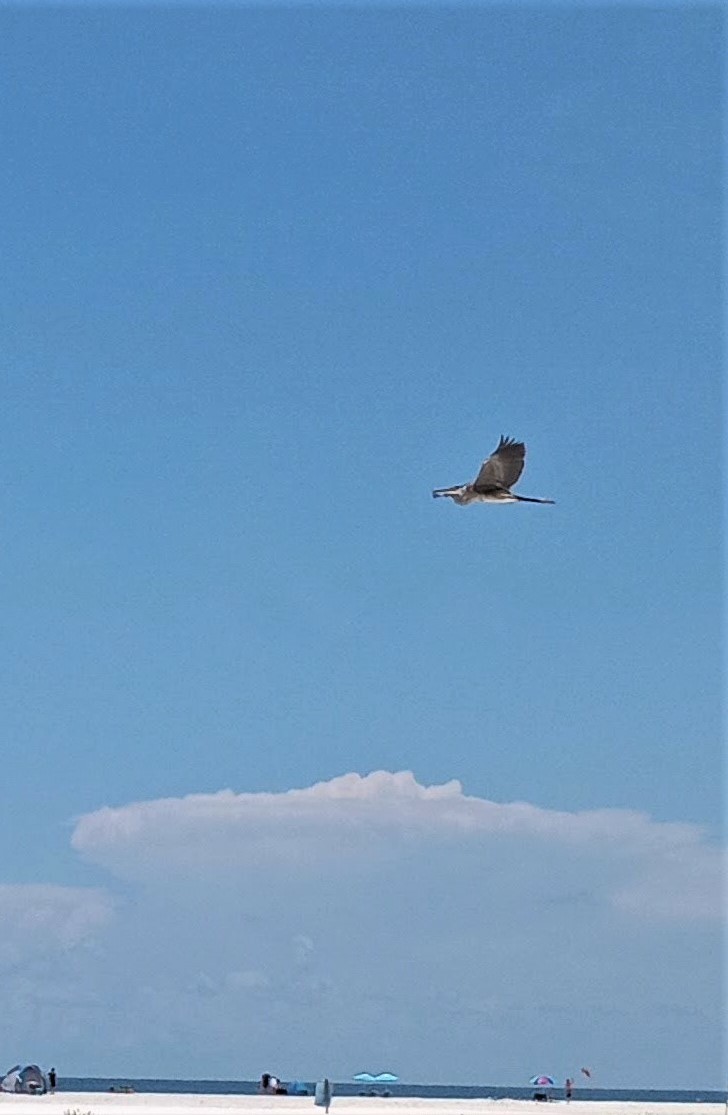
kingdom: Animalia
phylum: Chordata
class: Aves
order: Pelecaniformes
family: Ardeidae
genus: Ardea
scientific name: Ardea herodias
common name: Great blue heron
